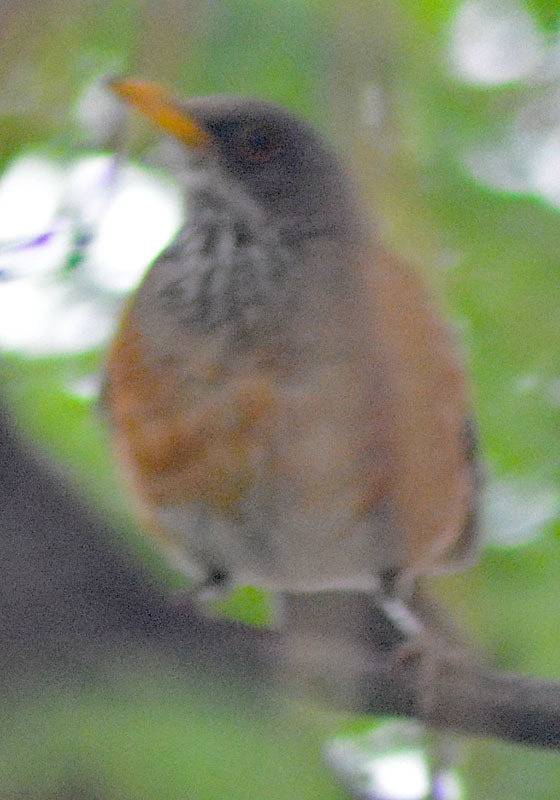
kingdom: Animalia
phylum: Chordata
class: Aves
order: Passeriformes
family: Turdidae
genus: Turdus
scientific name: Turdus rufopalliatus
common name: Rufous-backed robin
